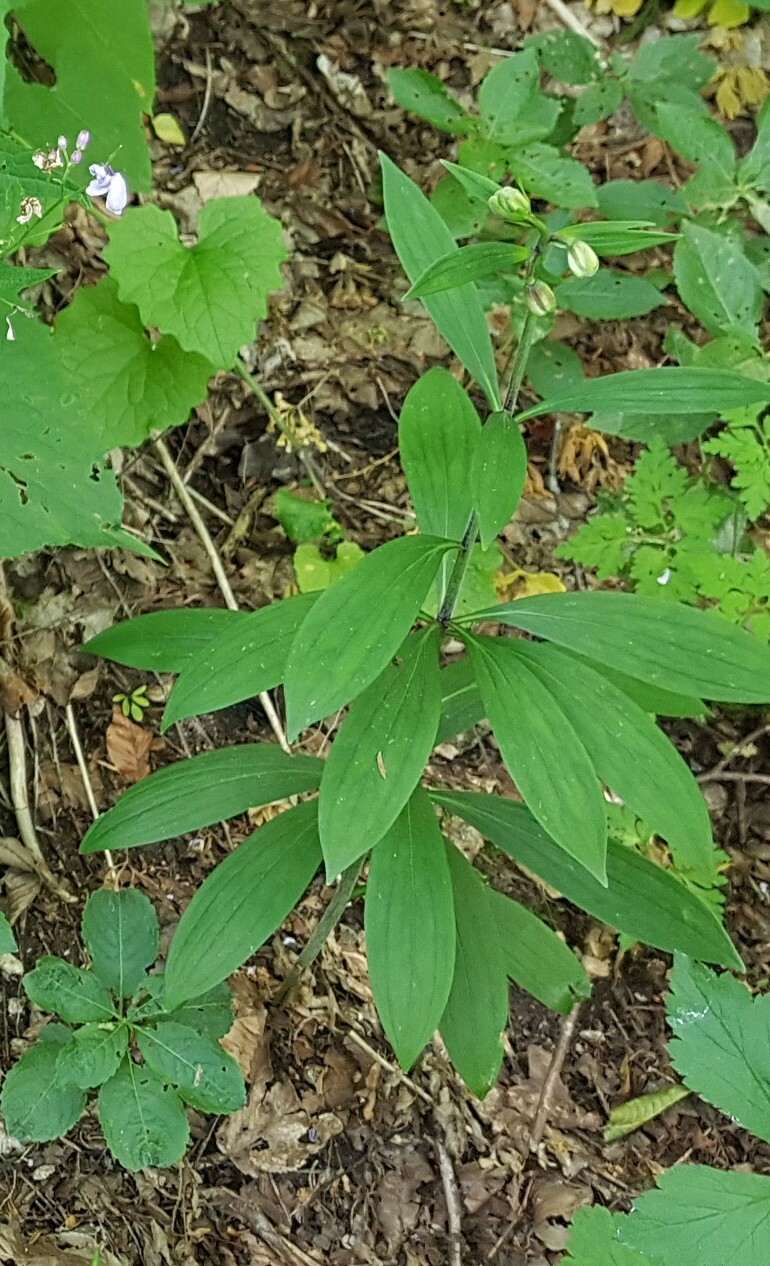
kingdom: Plantae
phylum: Tracheophyta
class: Liliopsida
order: Liliales
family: Liliaceae
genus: Lilium
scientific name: Lilium martagon
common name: Martagon lily
